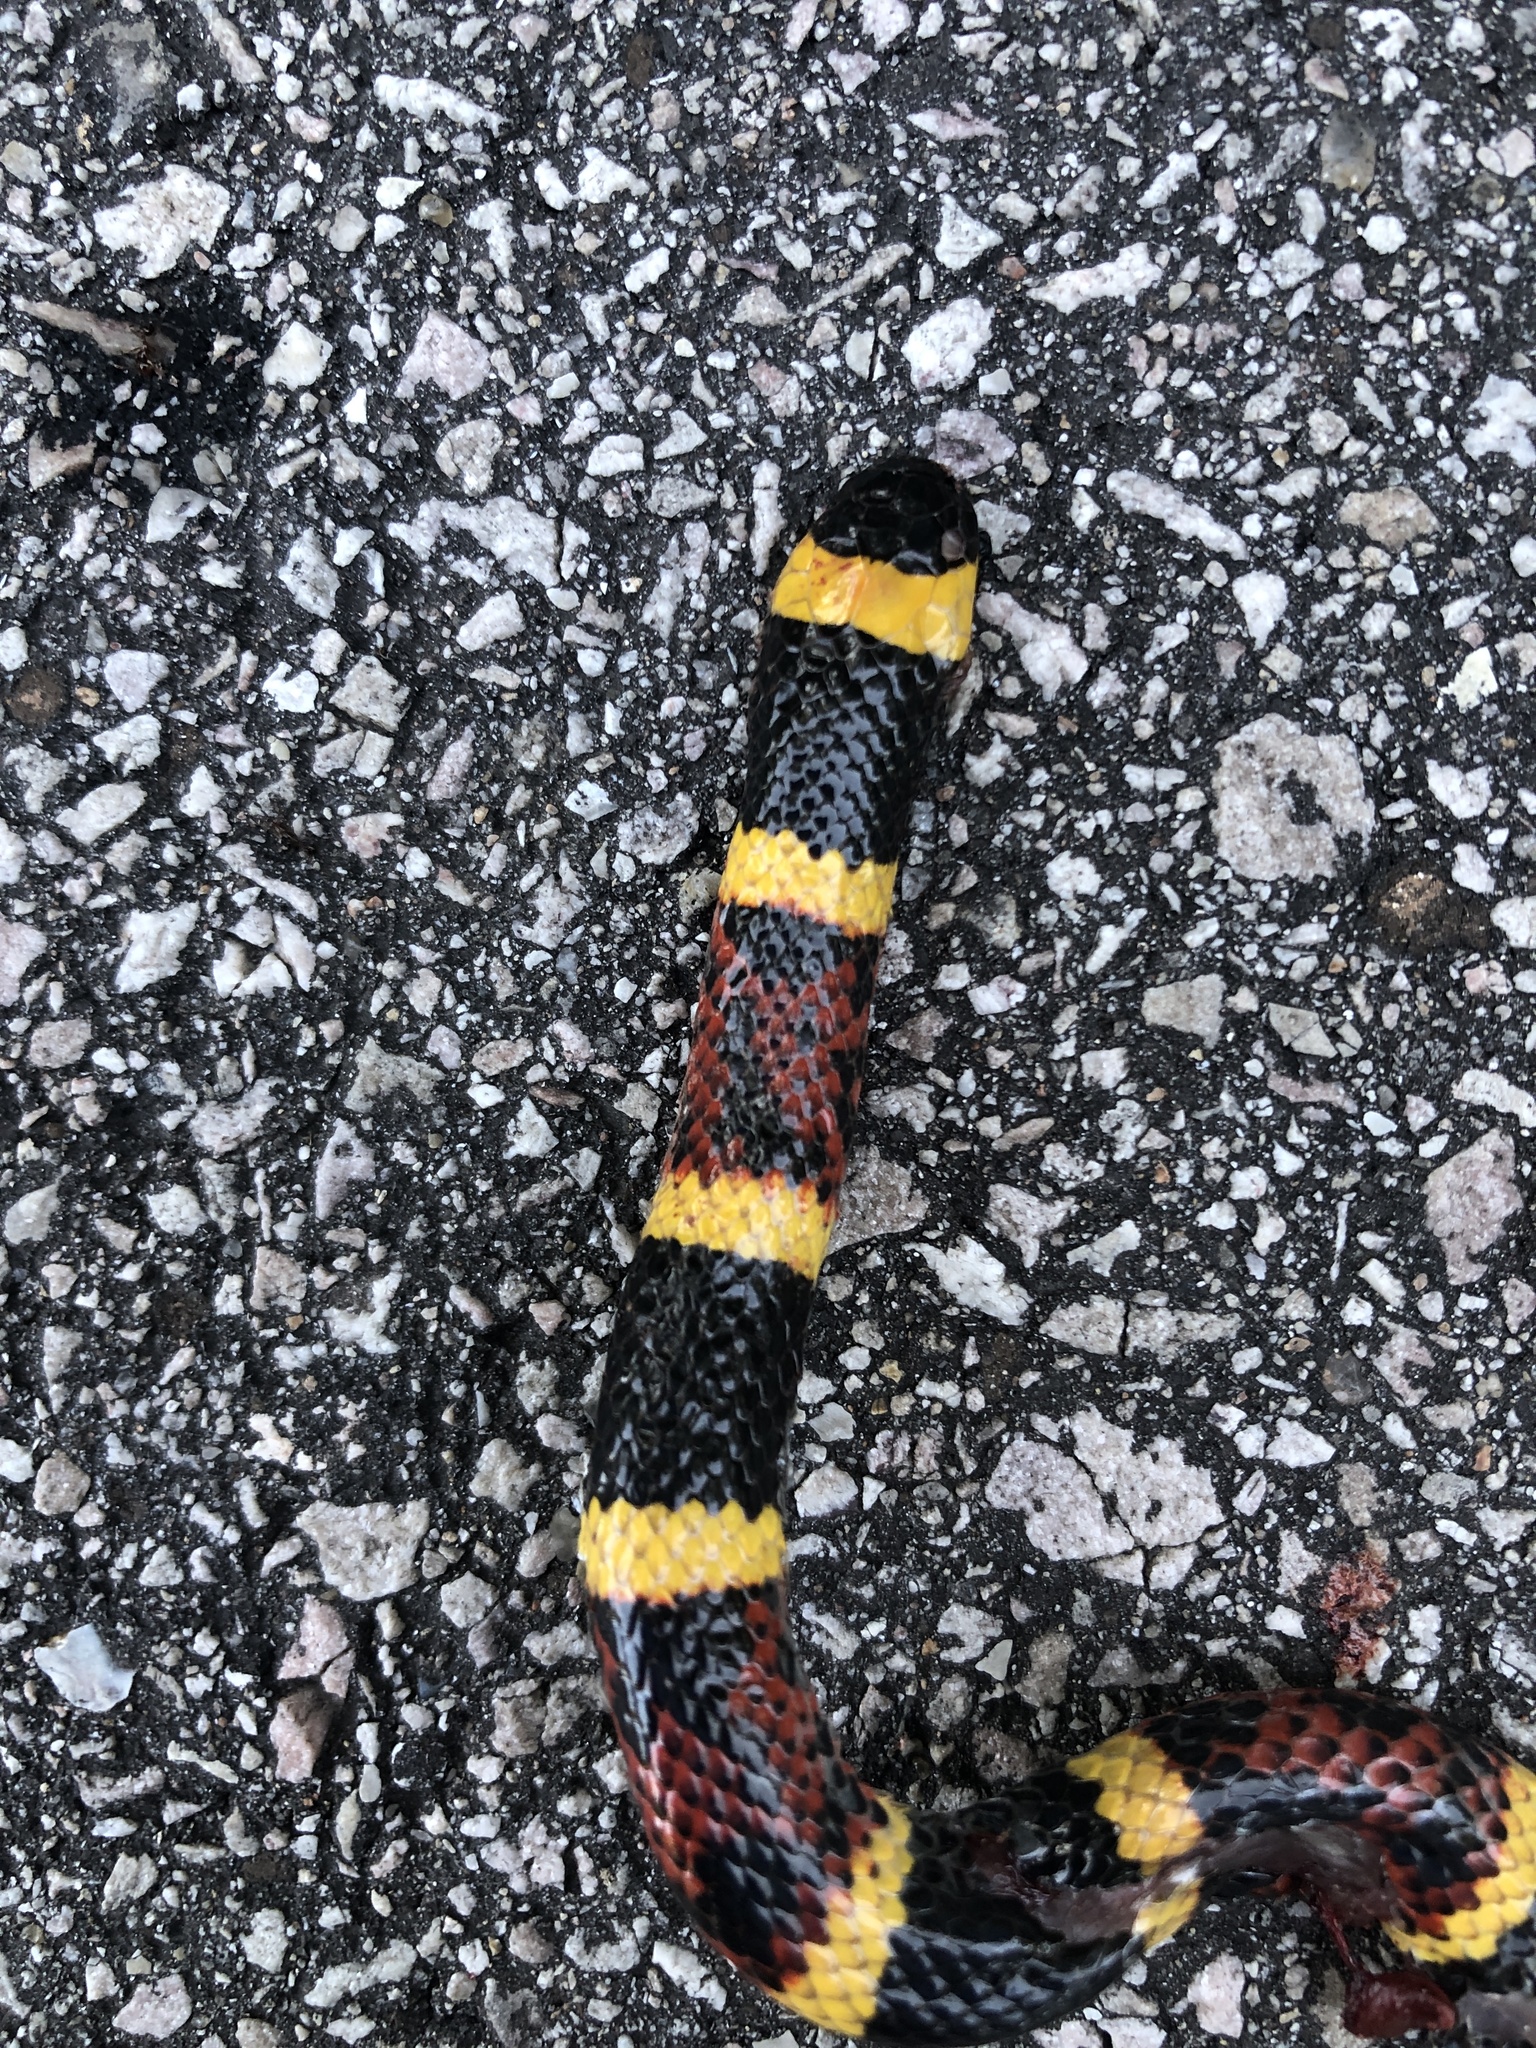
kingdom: Animalia
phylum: Chordata
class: Squamata
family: Elapidae
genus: Micrurus
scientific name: Micrurus tener
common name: Texas coral snake
